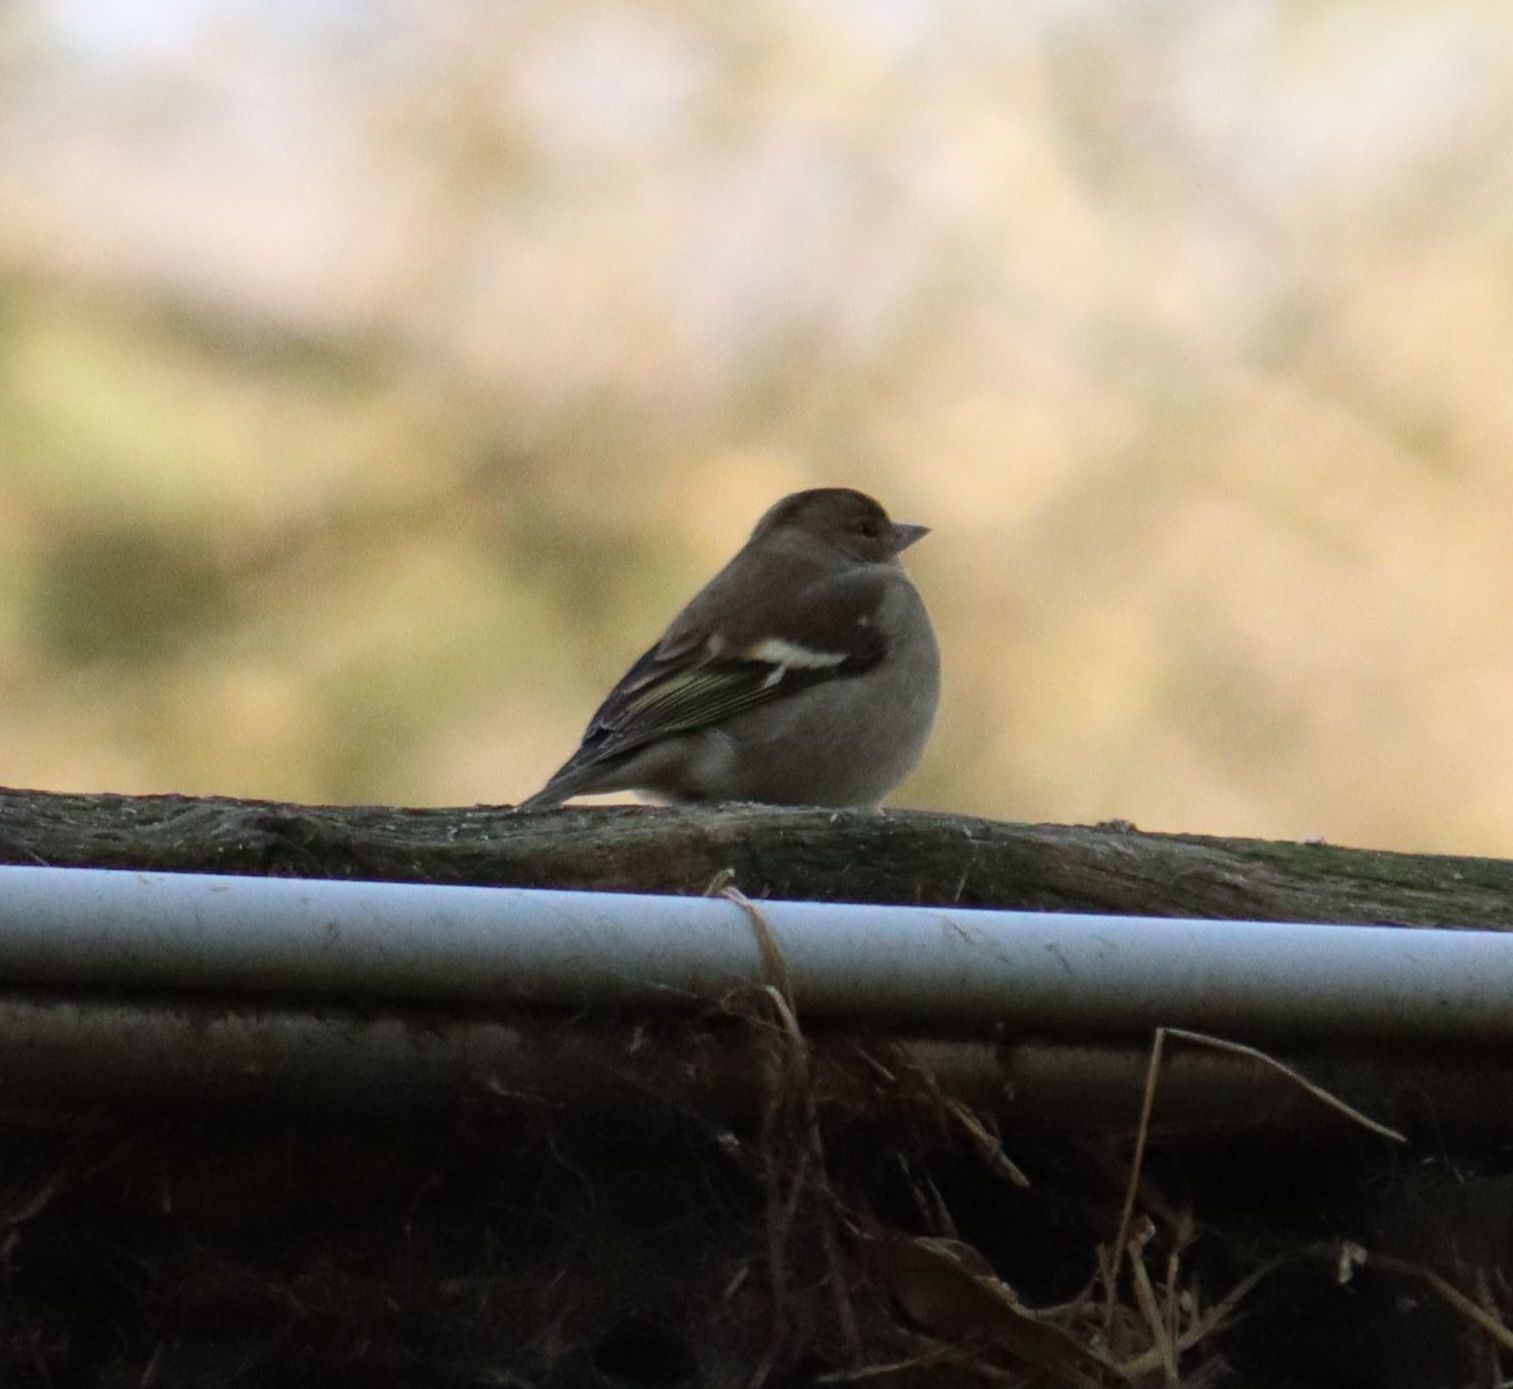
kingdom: Animalia
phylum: Chordata
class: Aves
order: Passeriformes
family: Fringillidae
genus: Fringilla
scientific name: Fringilla coelebs
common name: Common chaffinch
